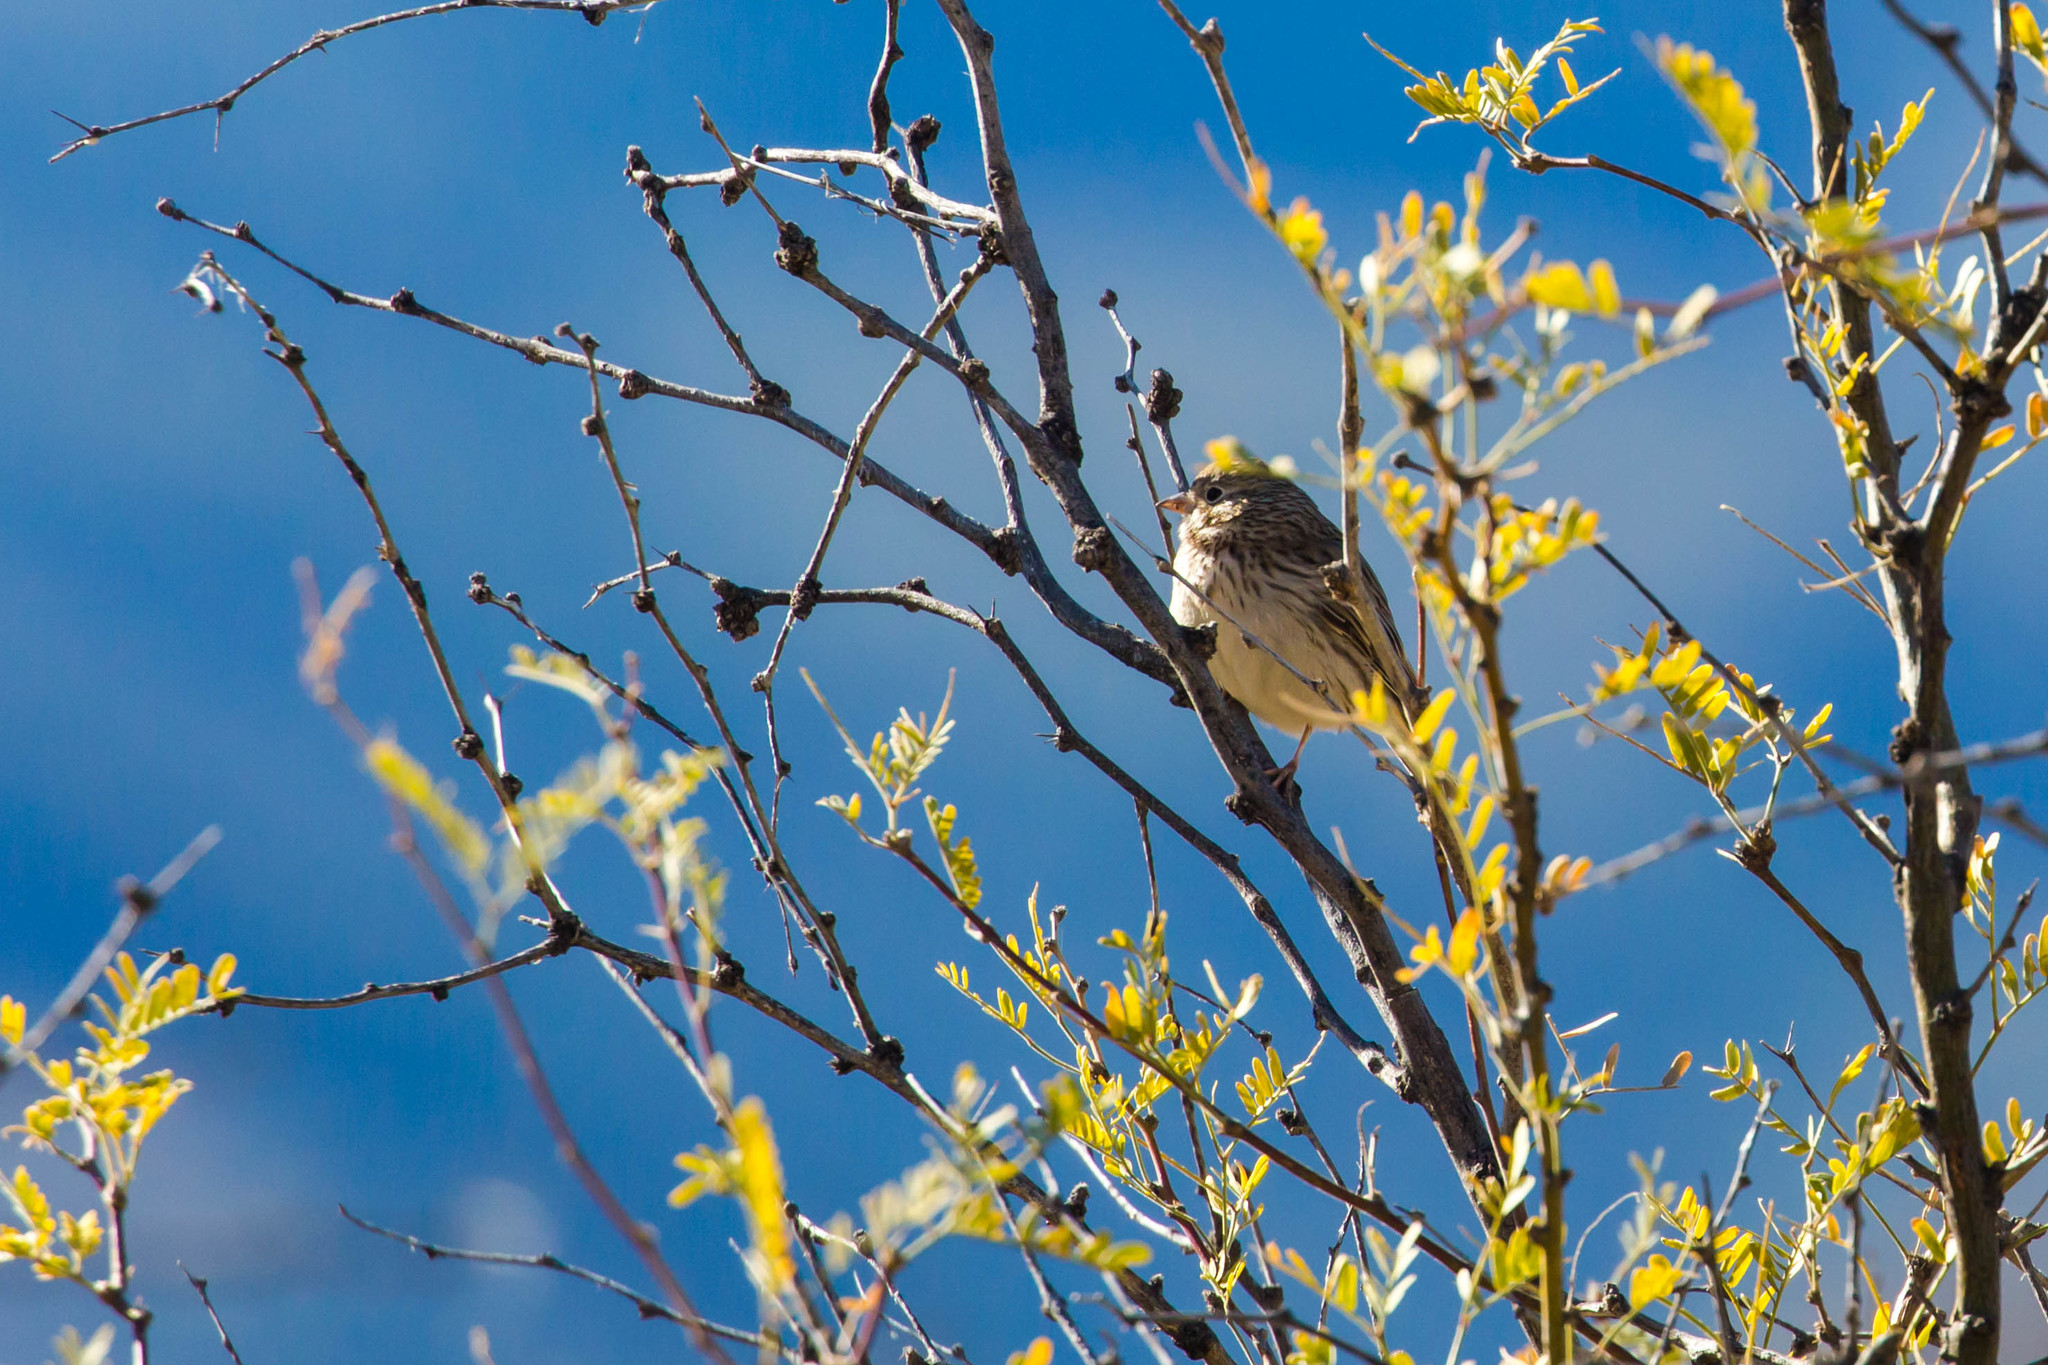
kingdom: Animalia
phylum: Chordata
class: Aves
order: Passeriformes
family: Passerellidae
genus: Pooecetes
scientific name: Pooecetes gramineus
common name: Vesper sparrow
